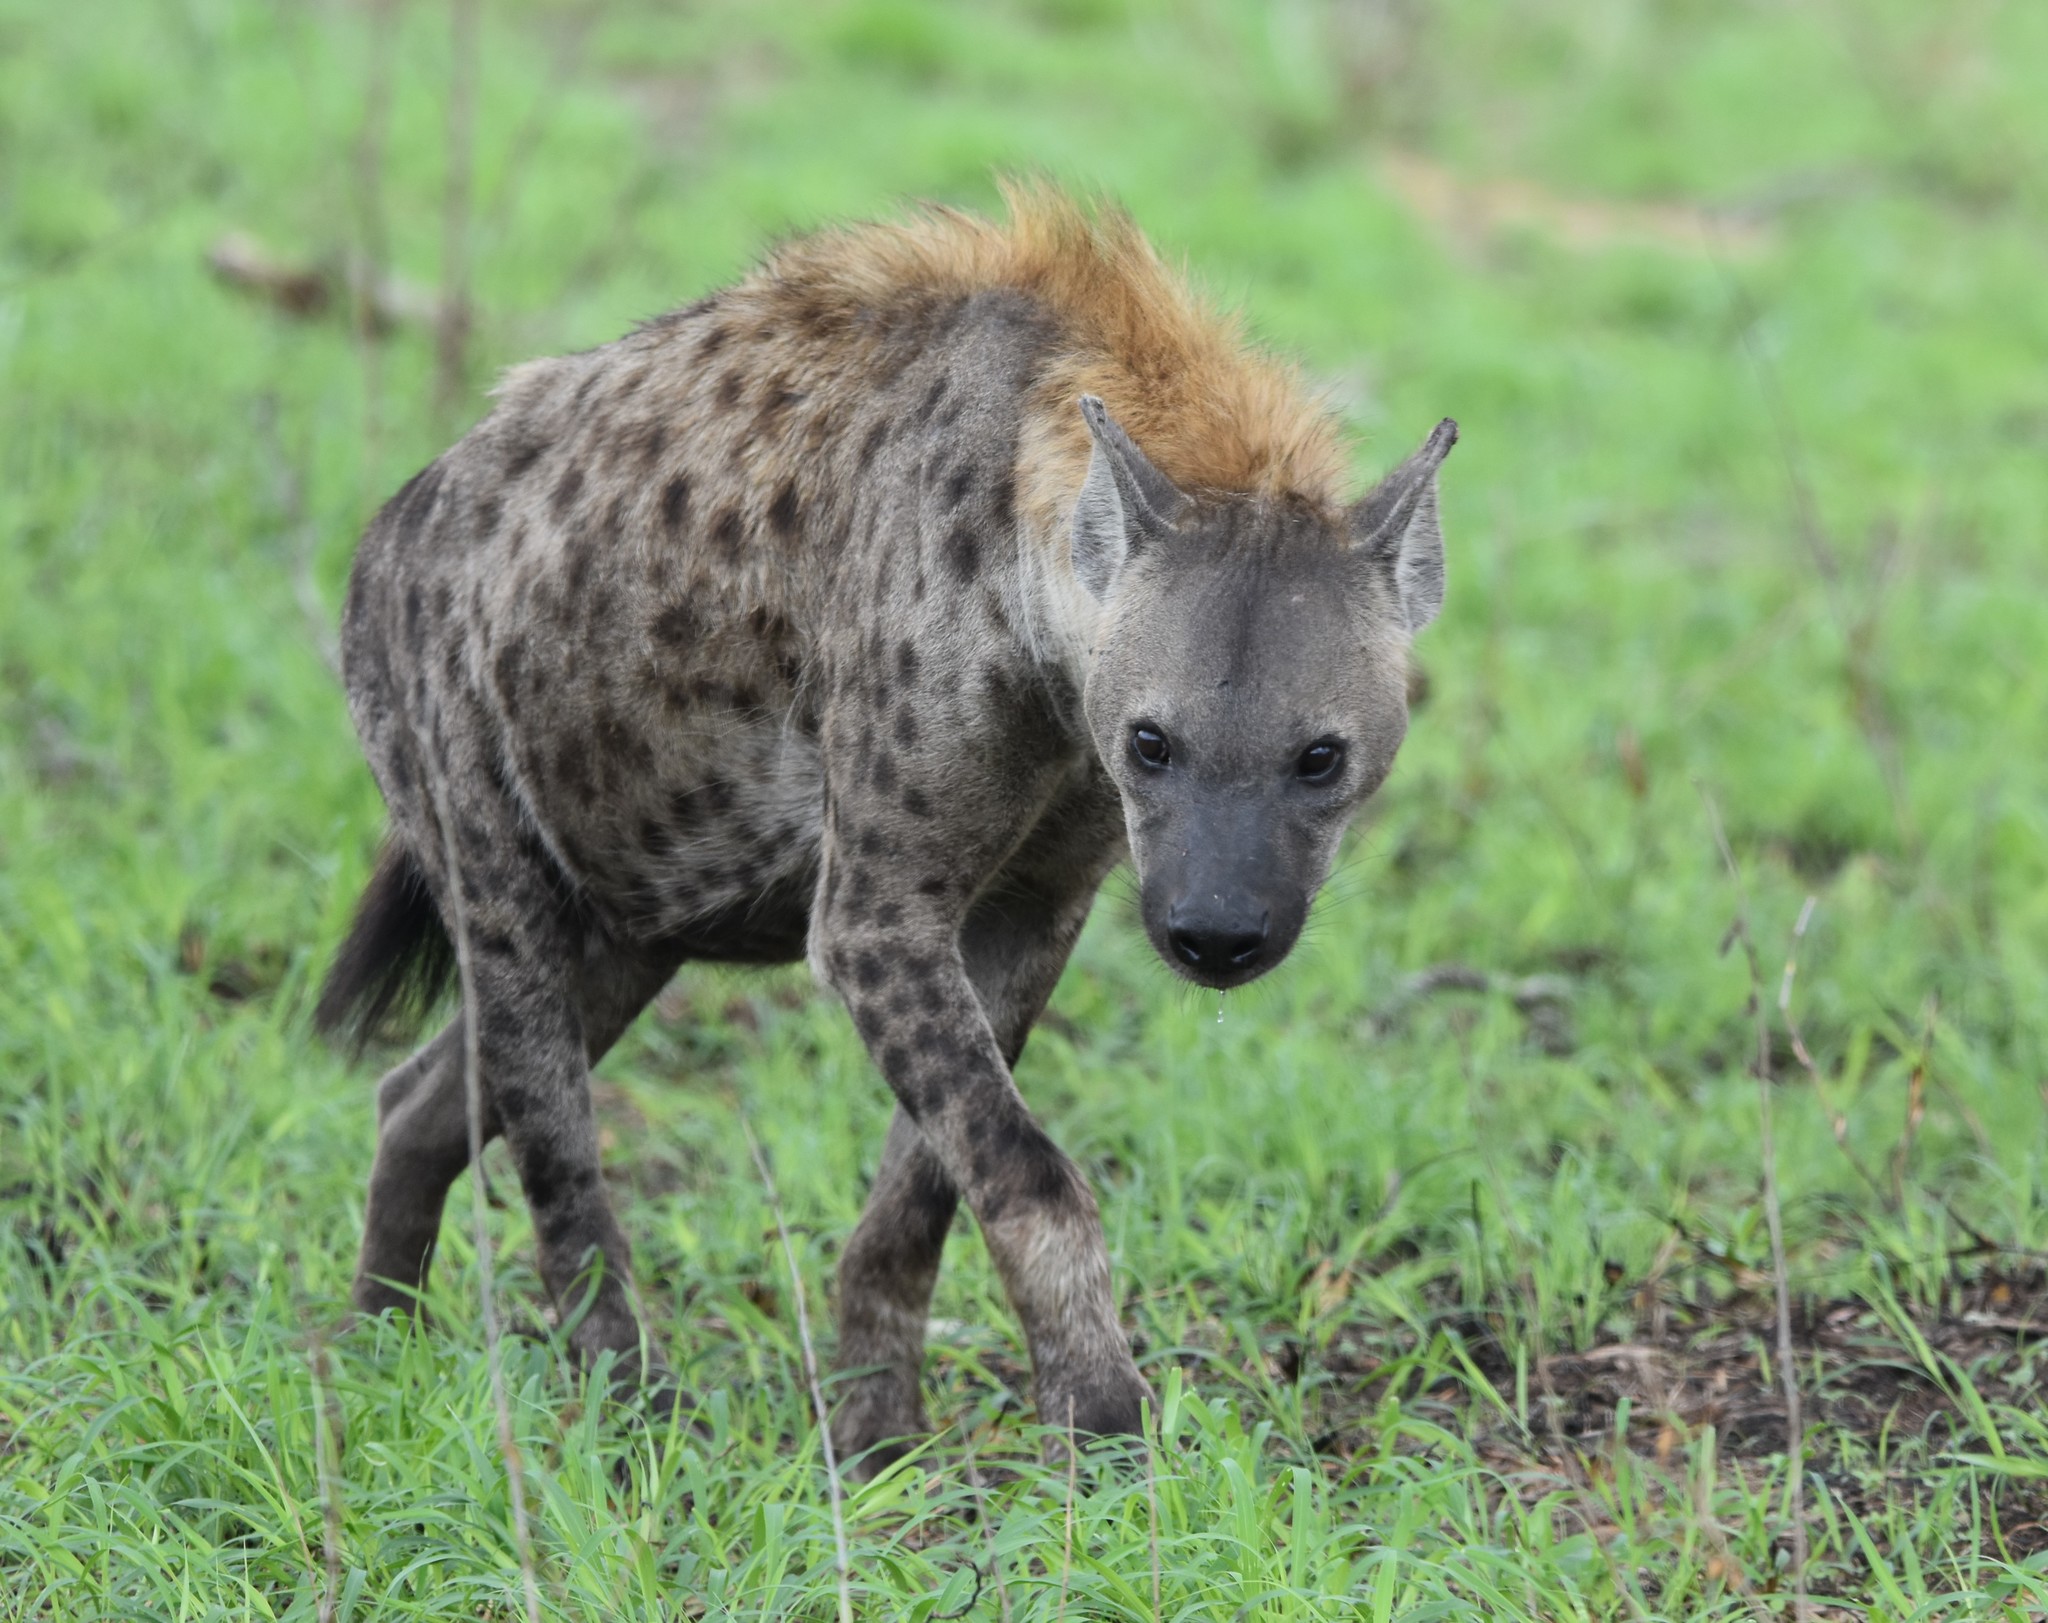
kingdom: Animalia
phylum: Chordata
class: Mammalia
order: Carnivora
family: Hyaenidae
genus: Crocuta
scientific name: Crocuta crocuta
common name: Spotted hyaena
